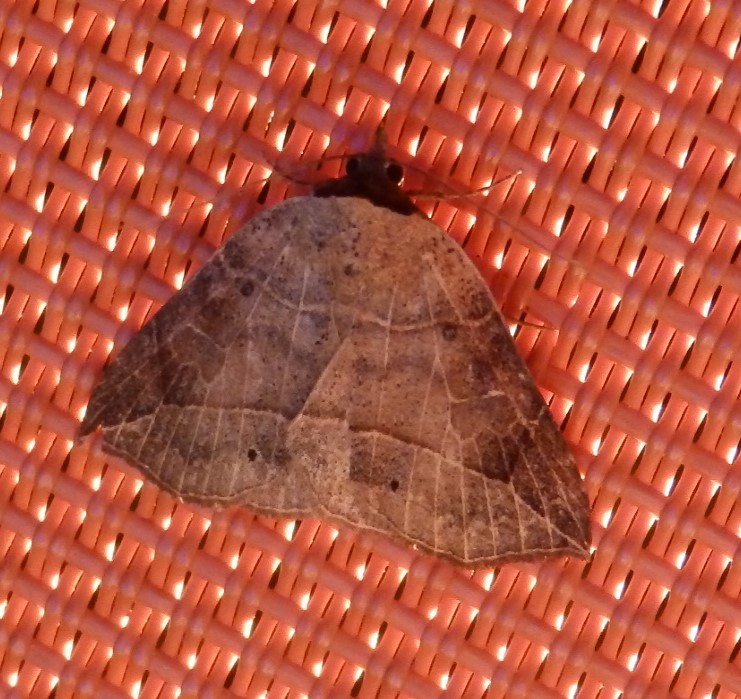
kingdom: Animalia
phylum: Arthropoda
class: Insecta
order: Lepidoptera
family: Erebidae
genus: Isogona
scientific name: Isogona tenuis
